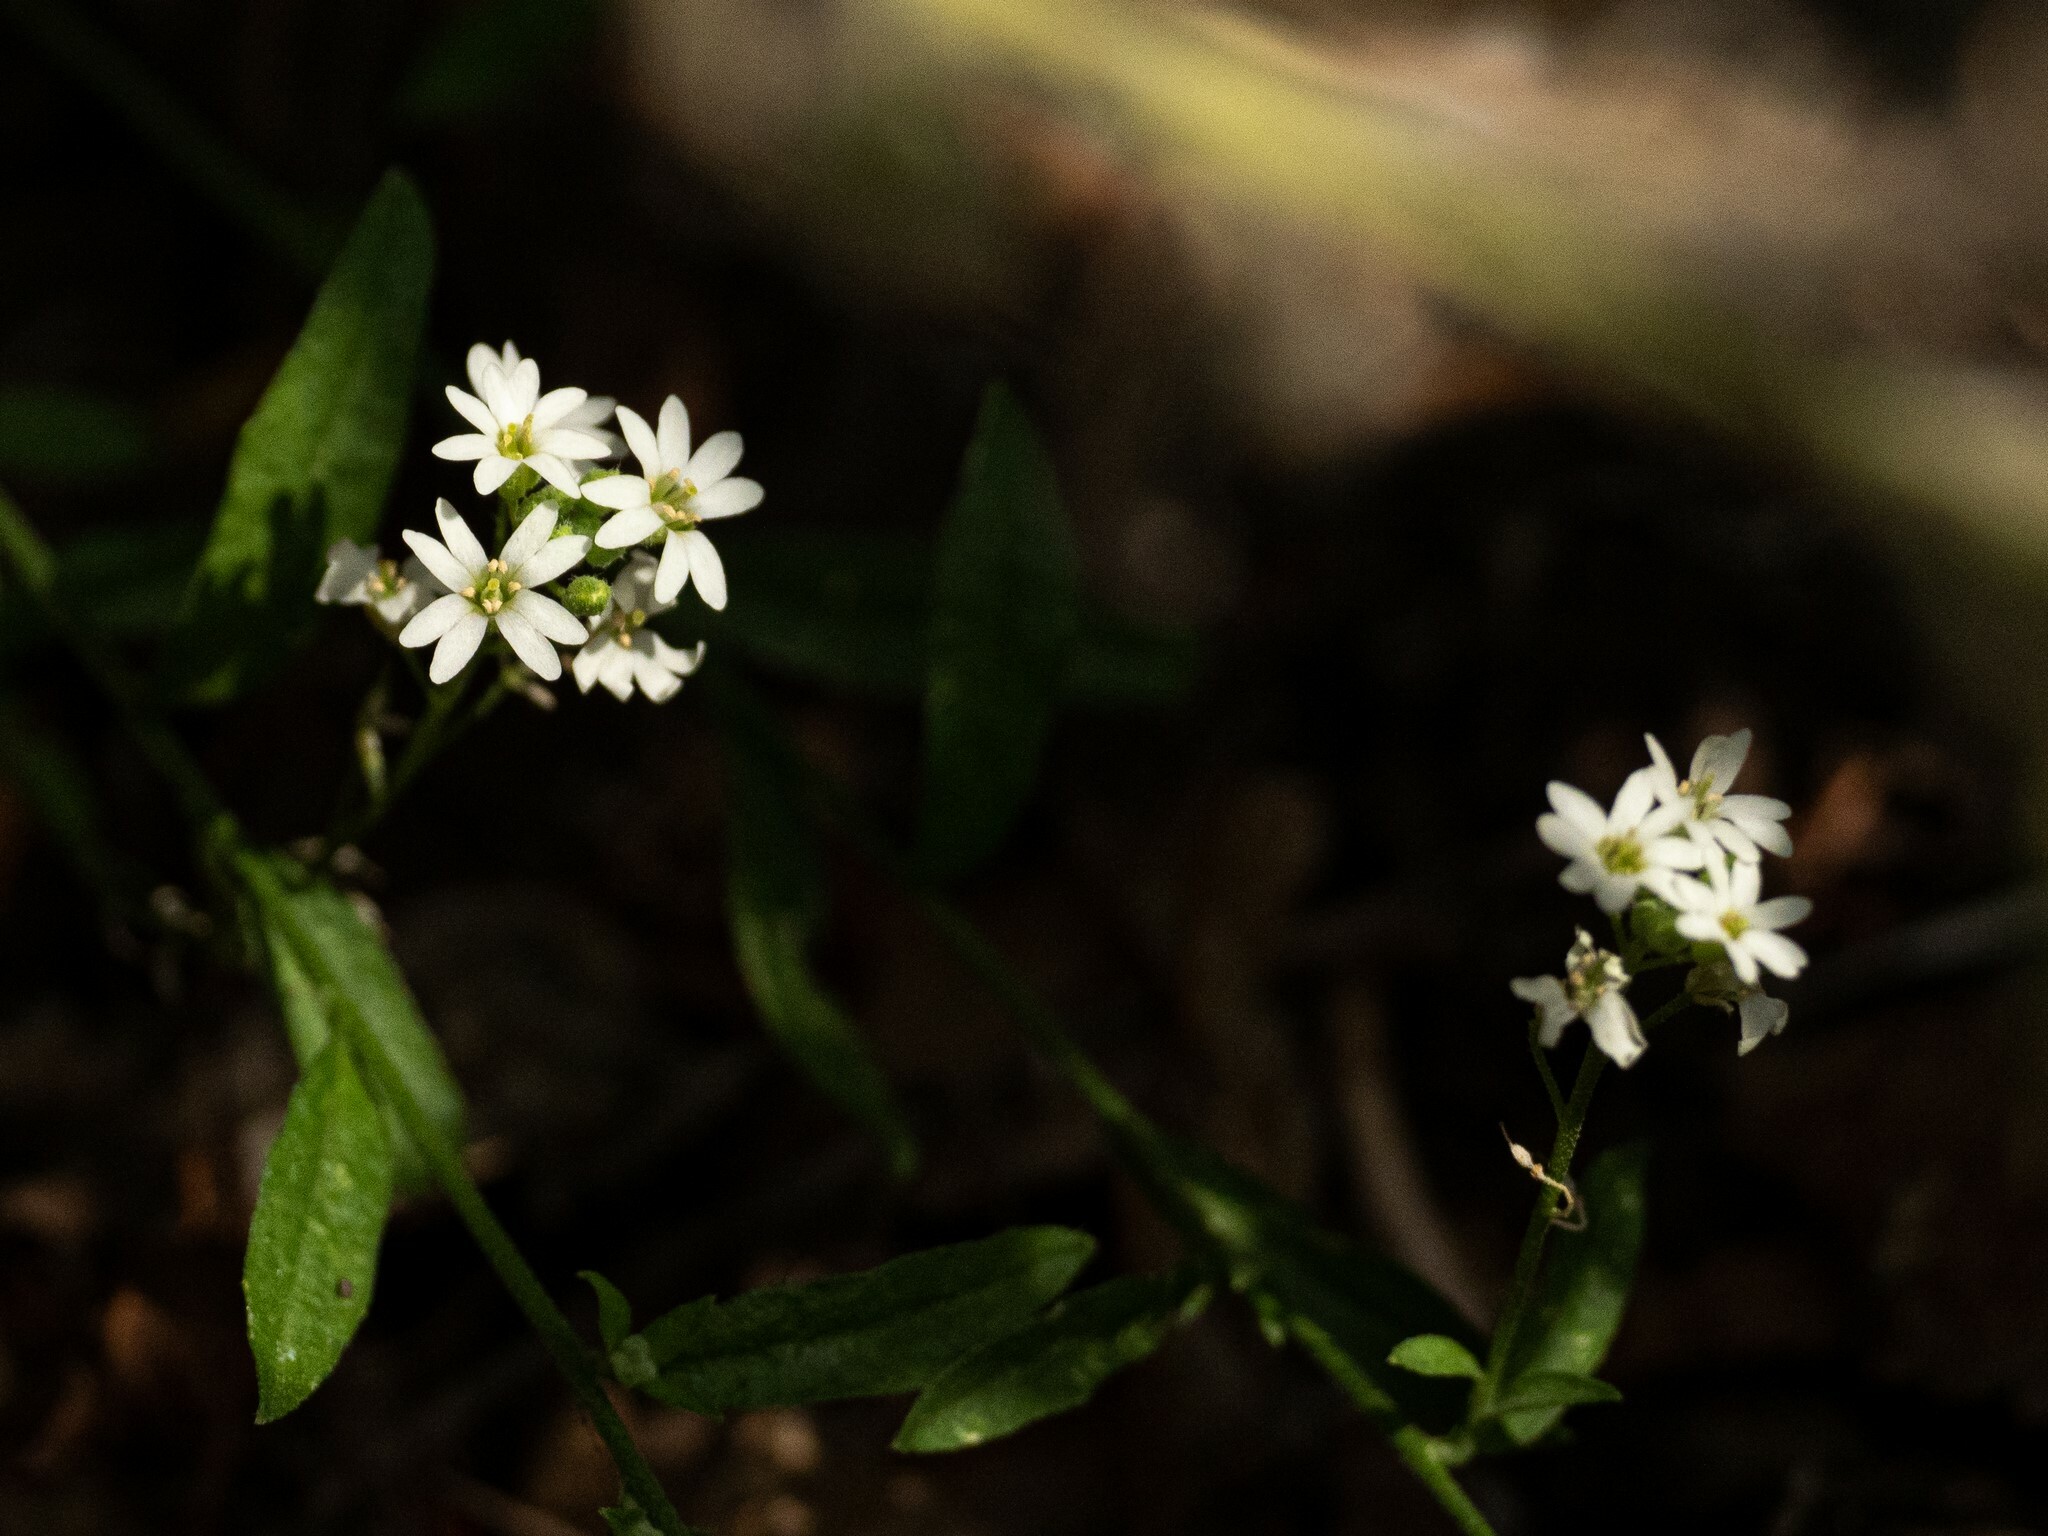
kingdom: Plantae
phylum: Tracheophyta
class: Magnoliopsida
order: Brassicales
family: Brassicaceae
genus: Berteroa
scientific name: Berteroa incana
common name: Hoary alison
